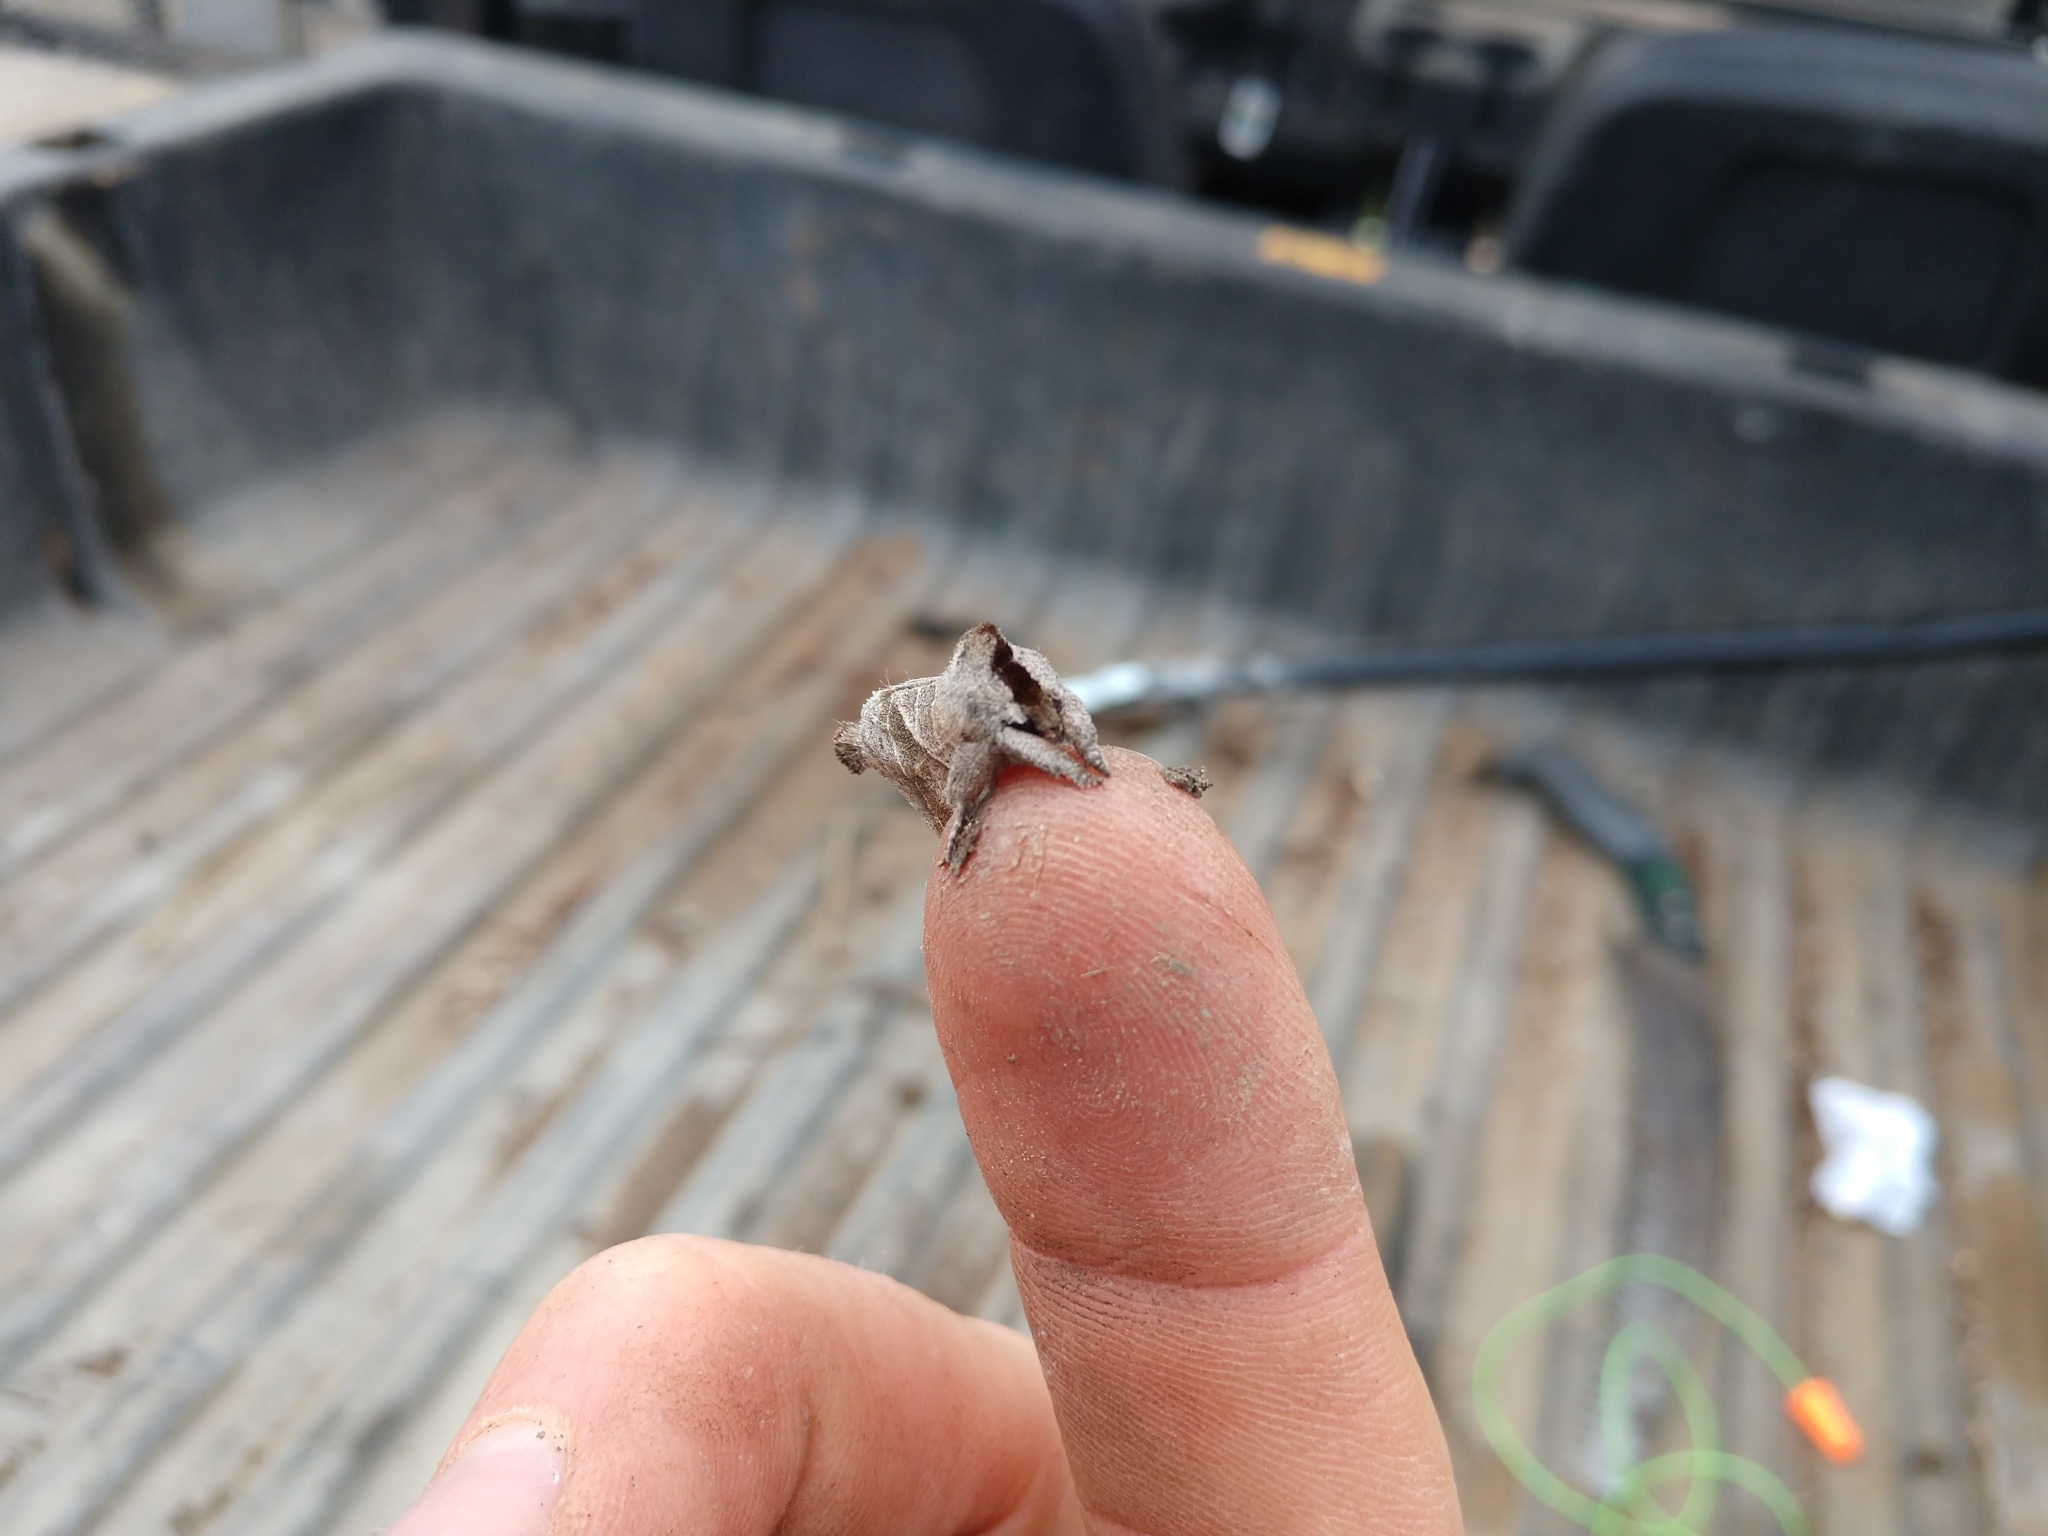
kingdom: Animalia
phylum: Arthropoda
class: Insecta
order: Lepidoptera
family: Notodontidae
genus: Clostera
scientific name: Clostera inclusa
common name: Angle-lined prominent
